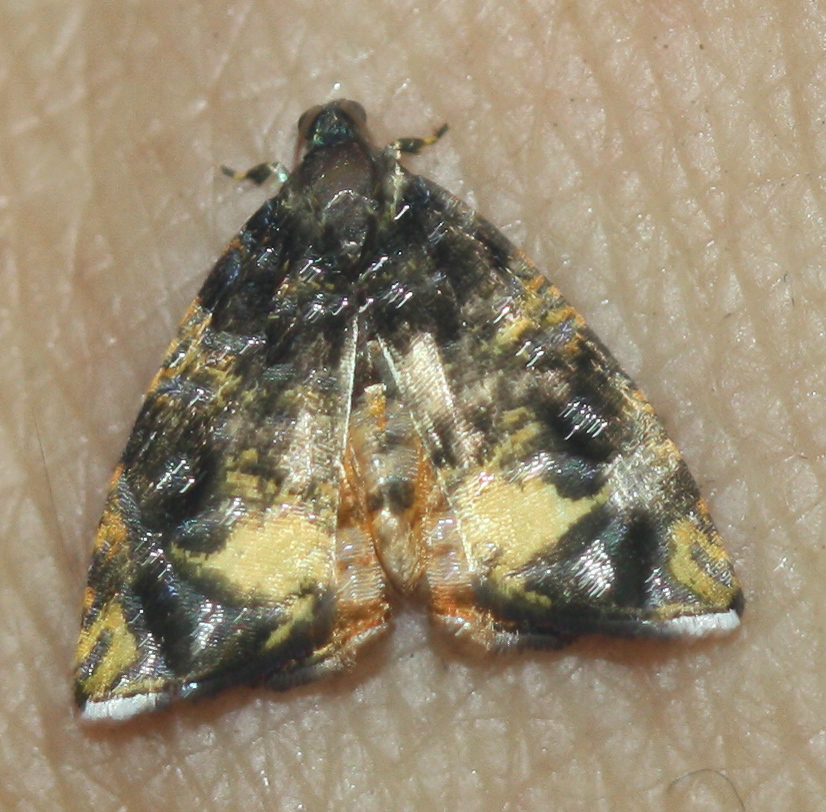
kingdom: Animalia
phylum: Arthropoda
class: Insecta
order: Lepidoptera
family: Tortricidae
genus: Mictopsichia
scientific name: Mictopsichia hubneriana
